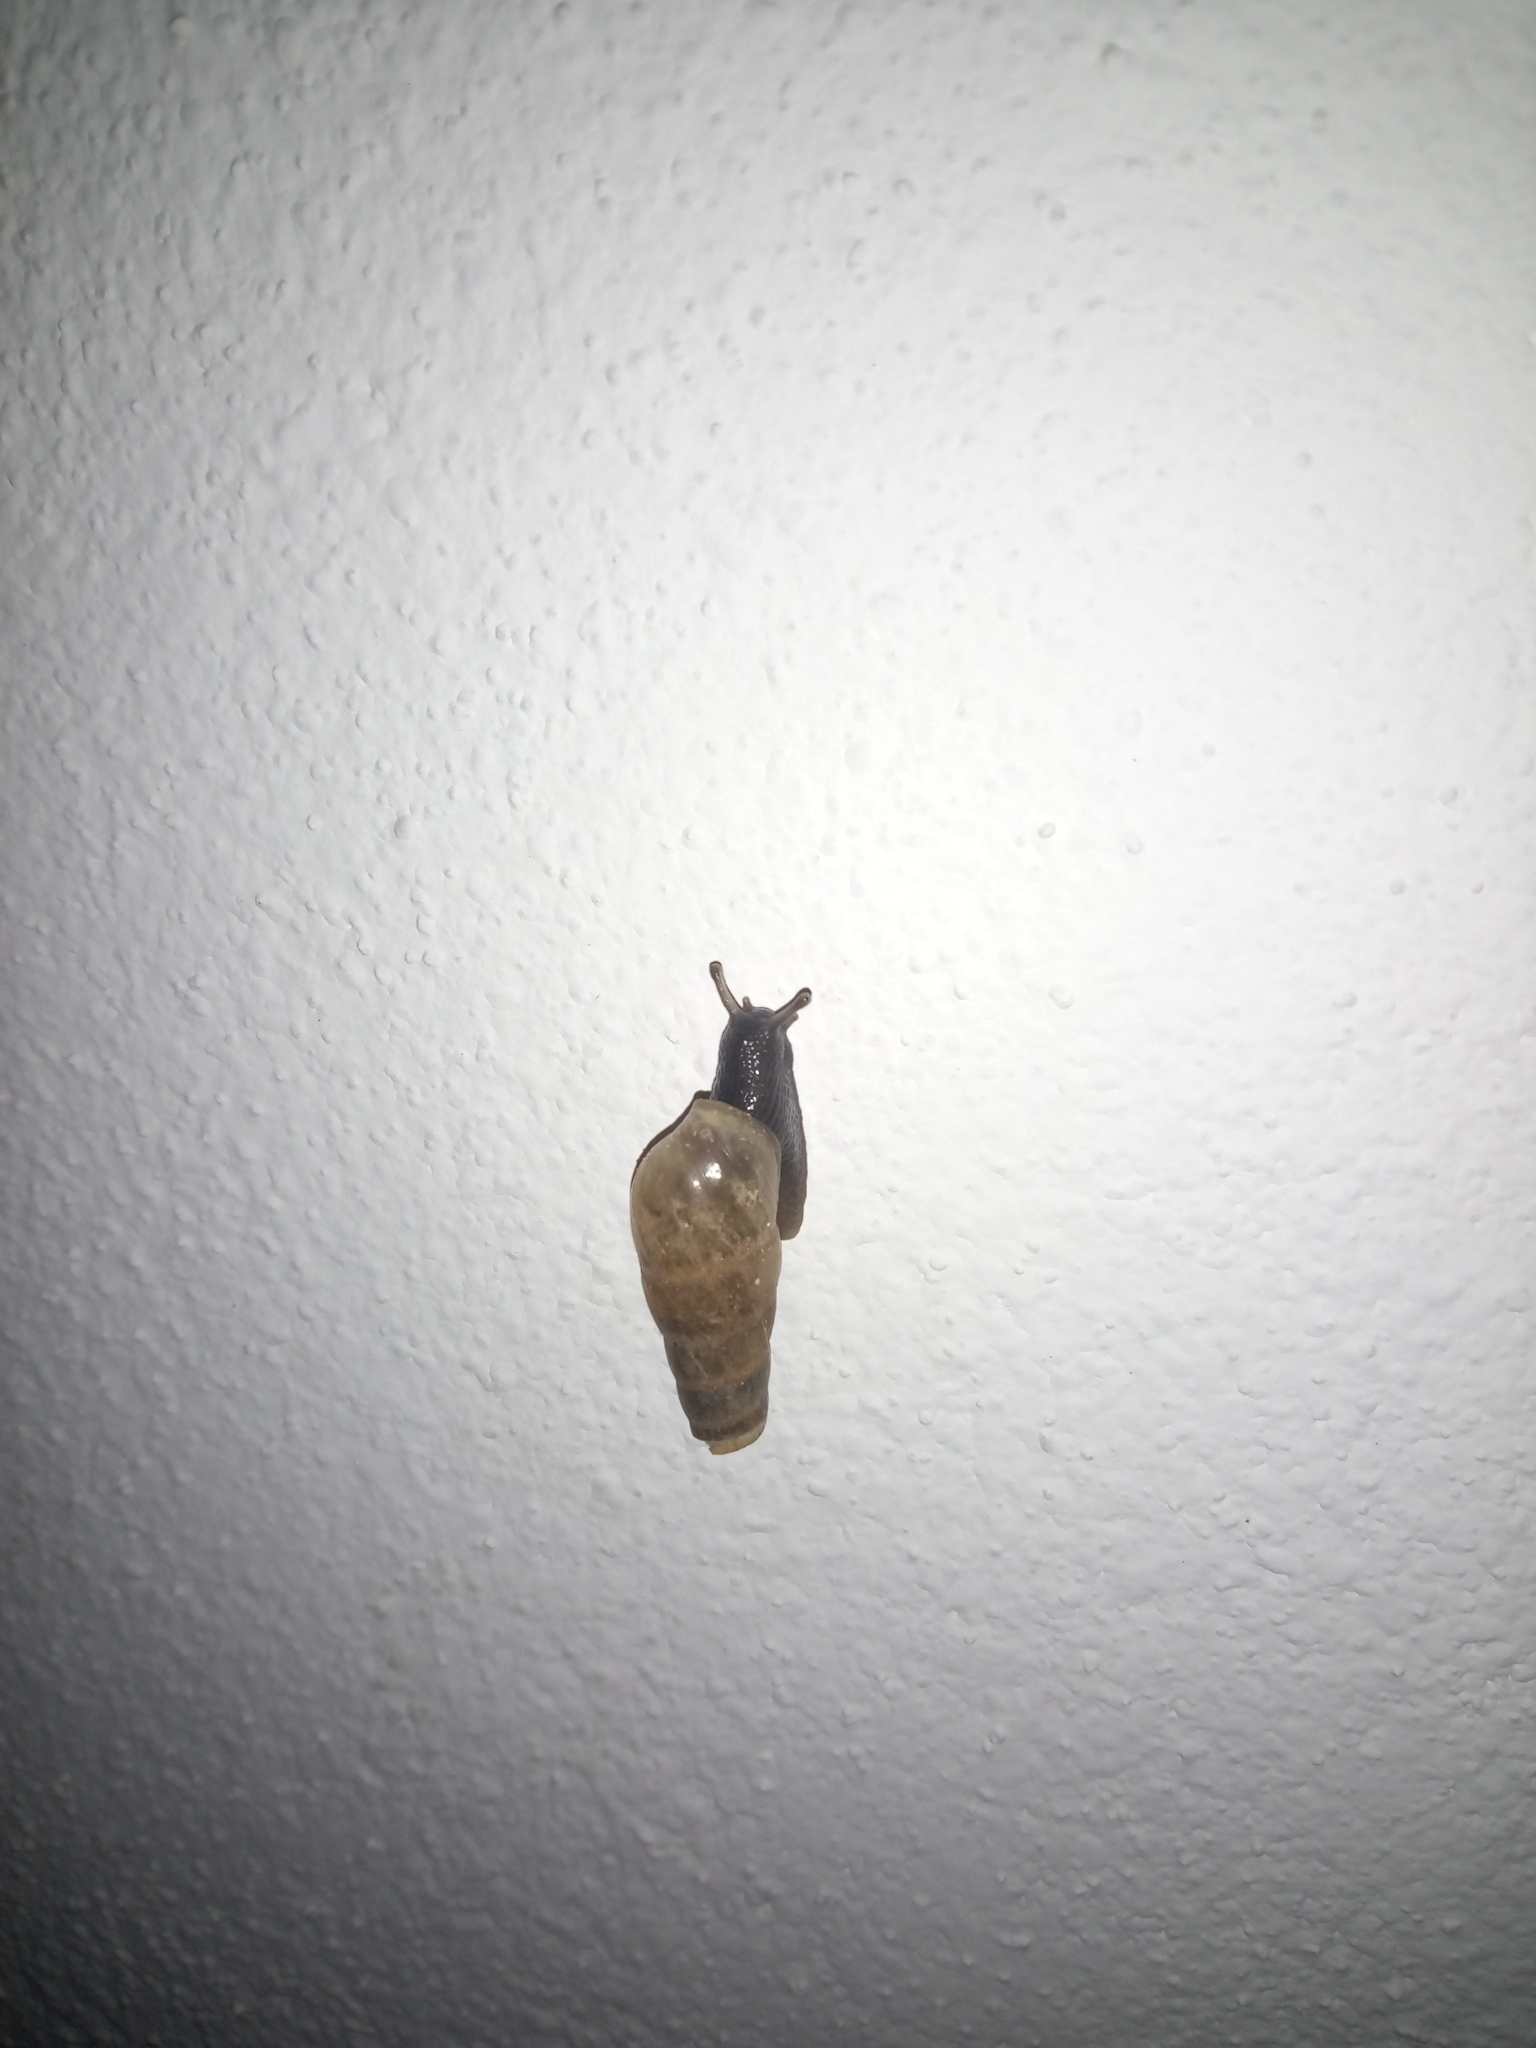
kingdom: Animalia
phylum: Mollusca
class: Gastropoda
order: Stylommatophora
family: Achatinidae
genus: Rumina
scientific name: Rumina decollata
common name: Decollate snail
